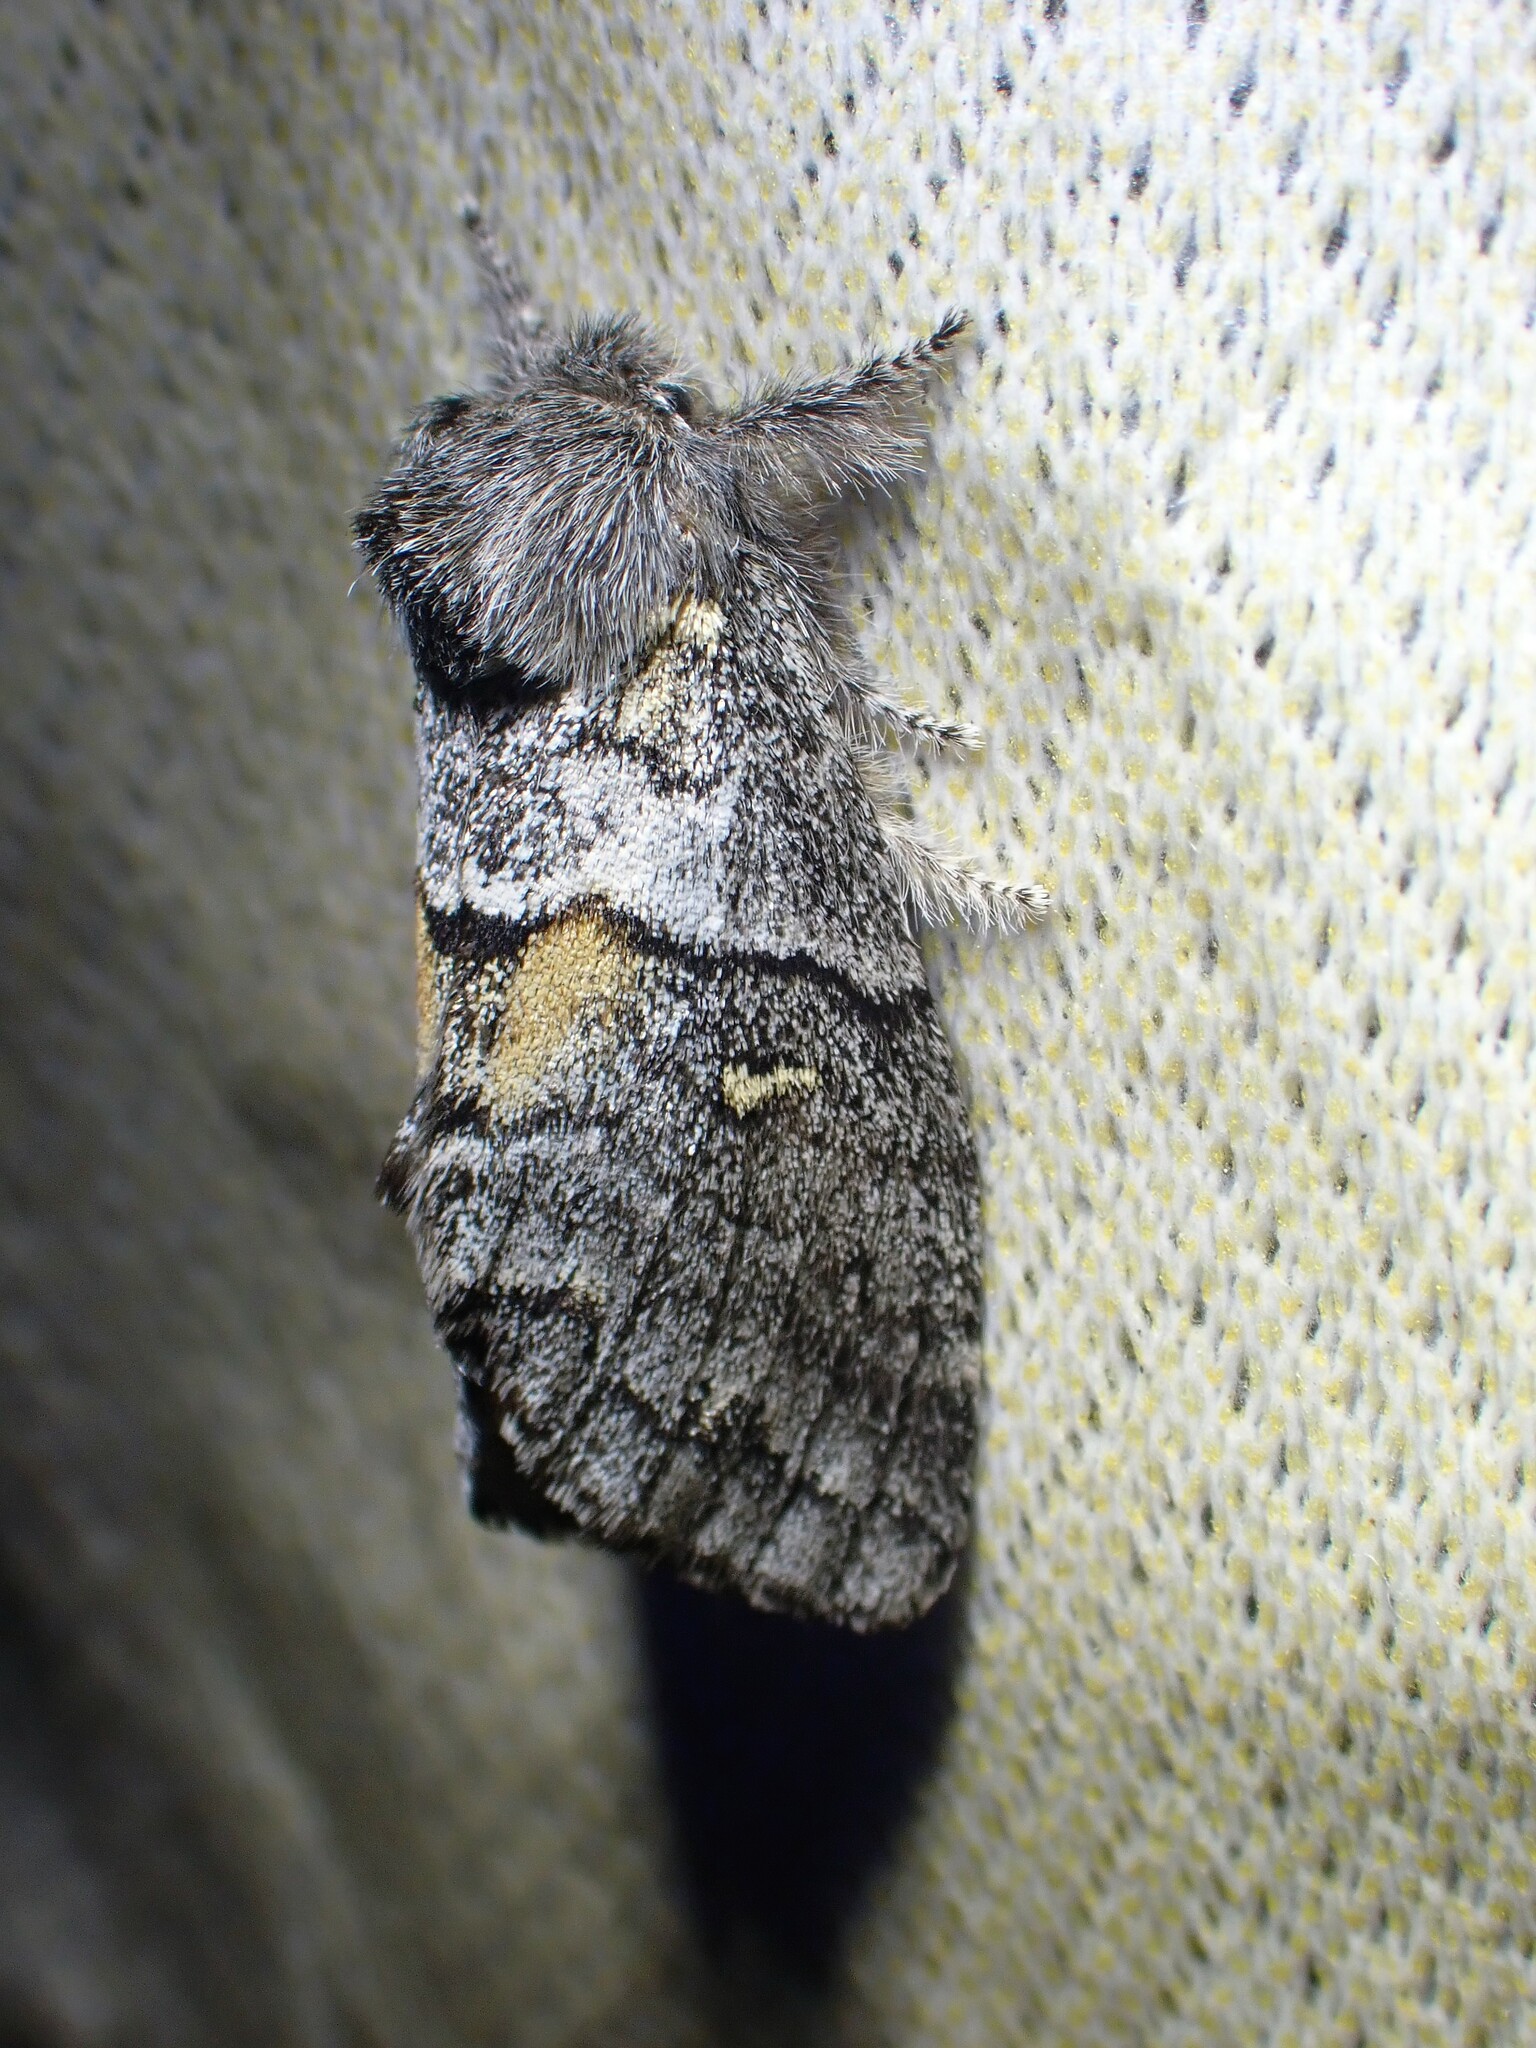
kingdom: Animalia
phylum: Arthropoda
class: Insecta
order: Lepidoptera
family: Notodontidae
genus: Gluphisia
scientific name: Gluphisia avimacula
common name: Four-spotted gluphisia moth
